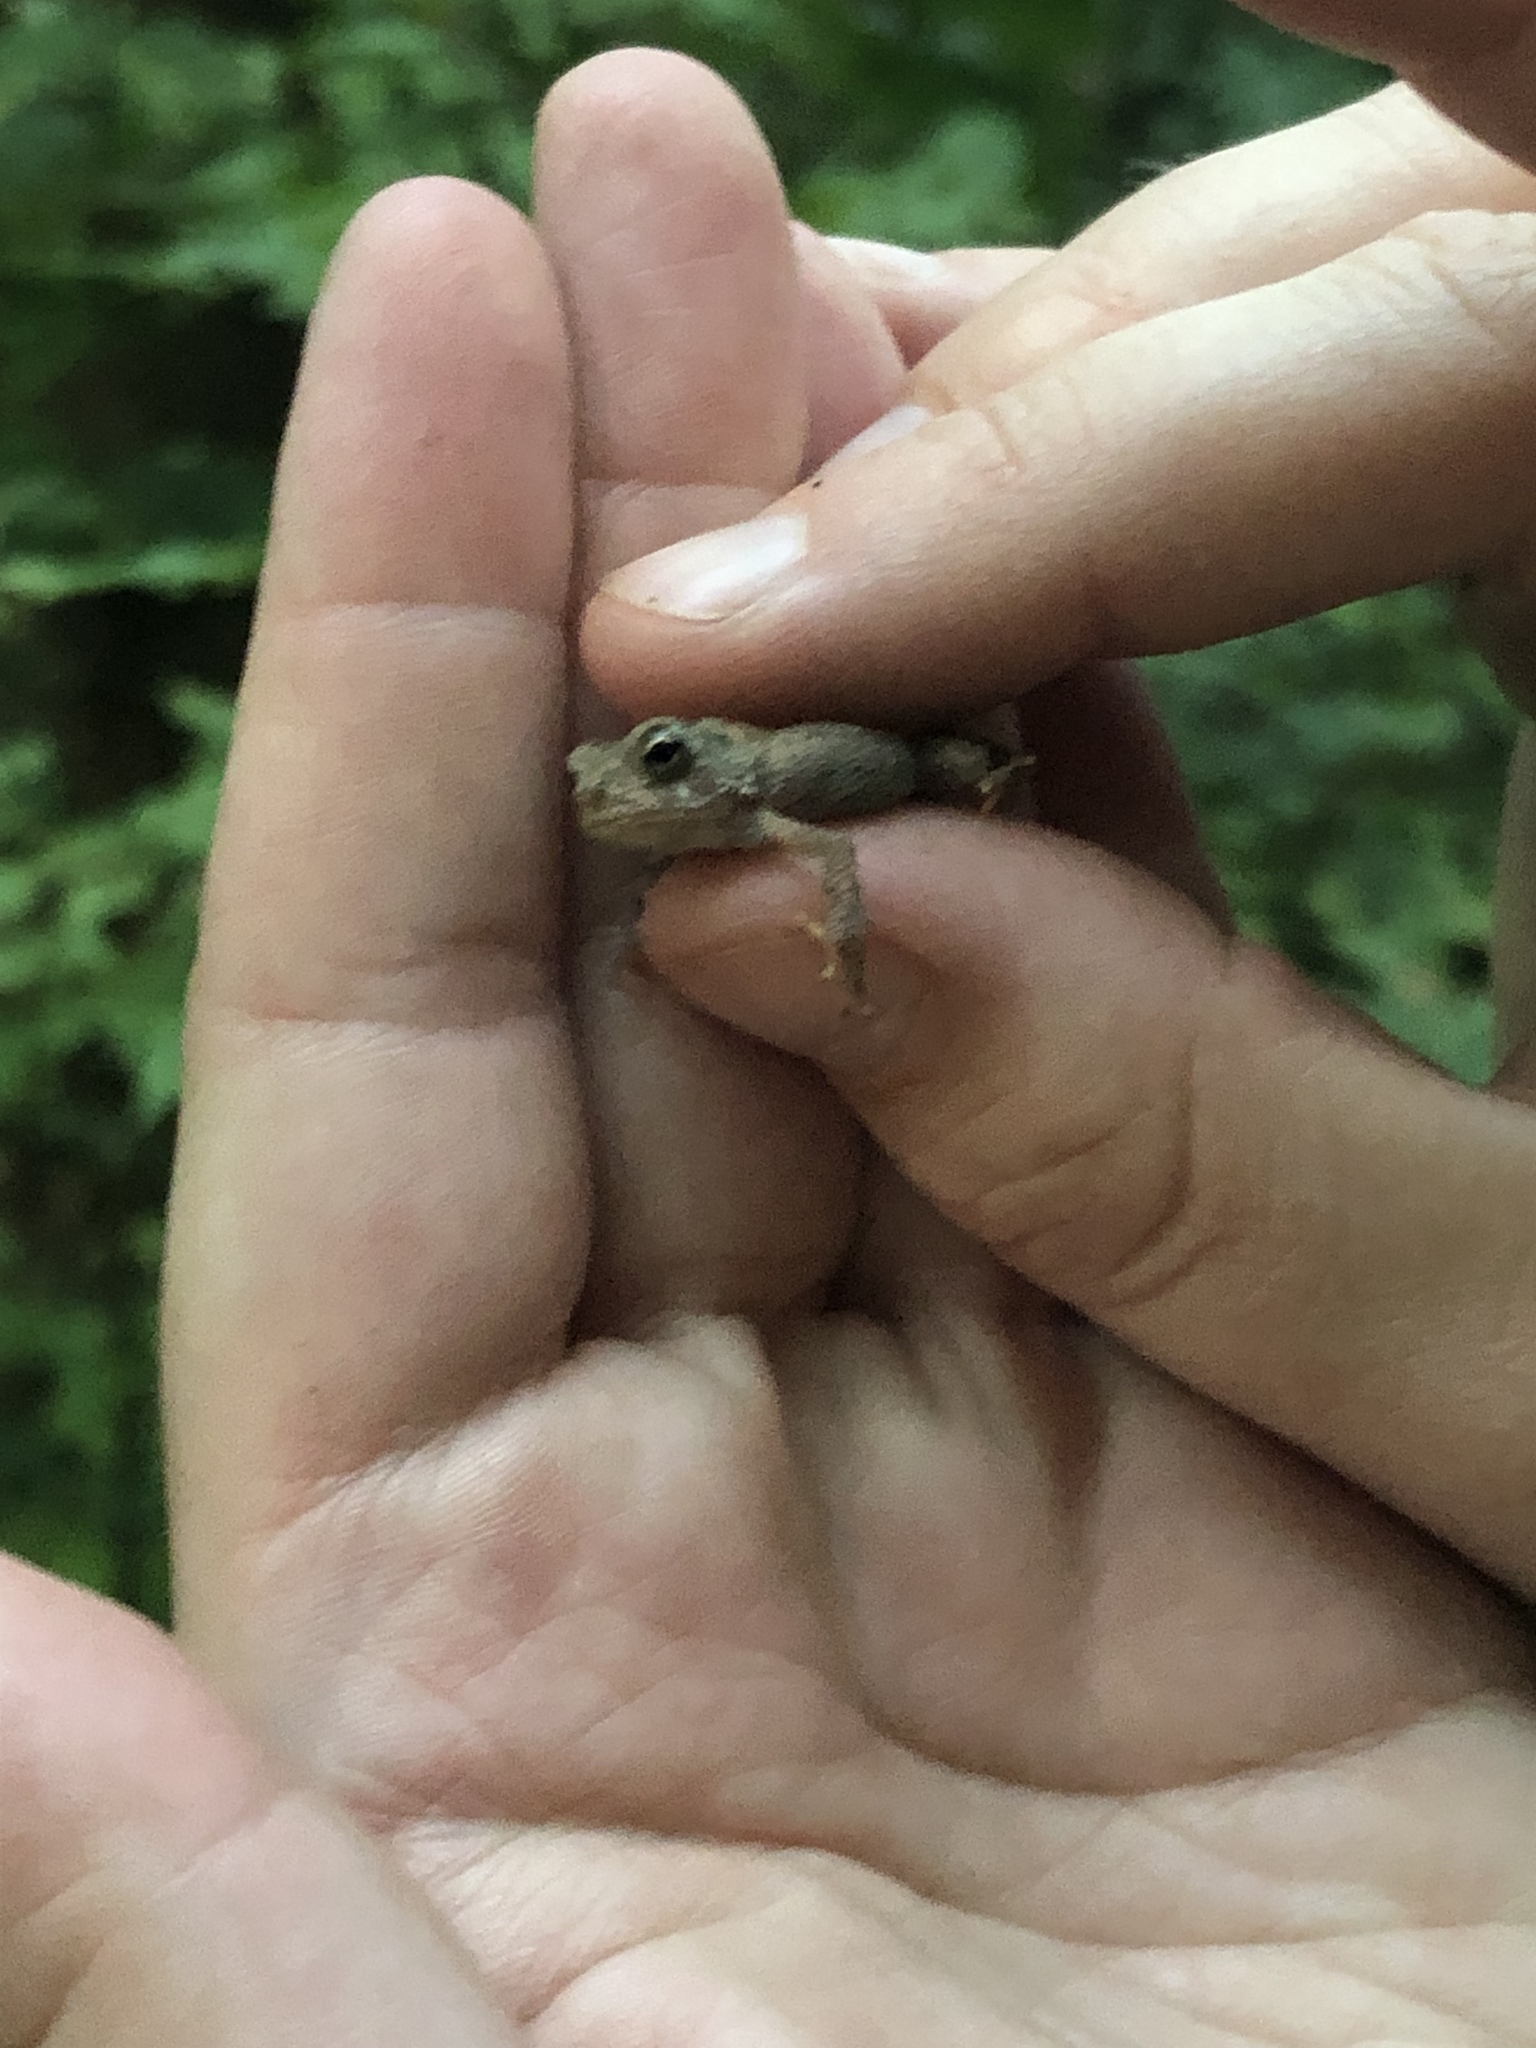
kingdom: Animalia
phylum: Chordata
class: Amphibia
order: Anura
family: Bufonidae
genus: Anaxyrus
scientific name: Anaxyrus americanus
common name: American toad
